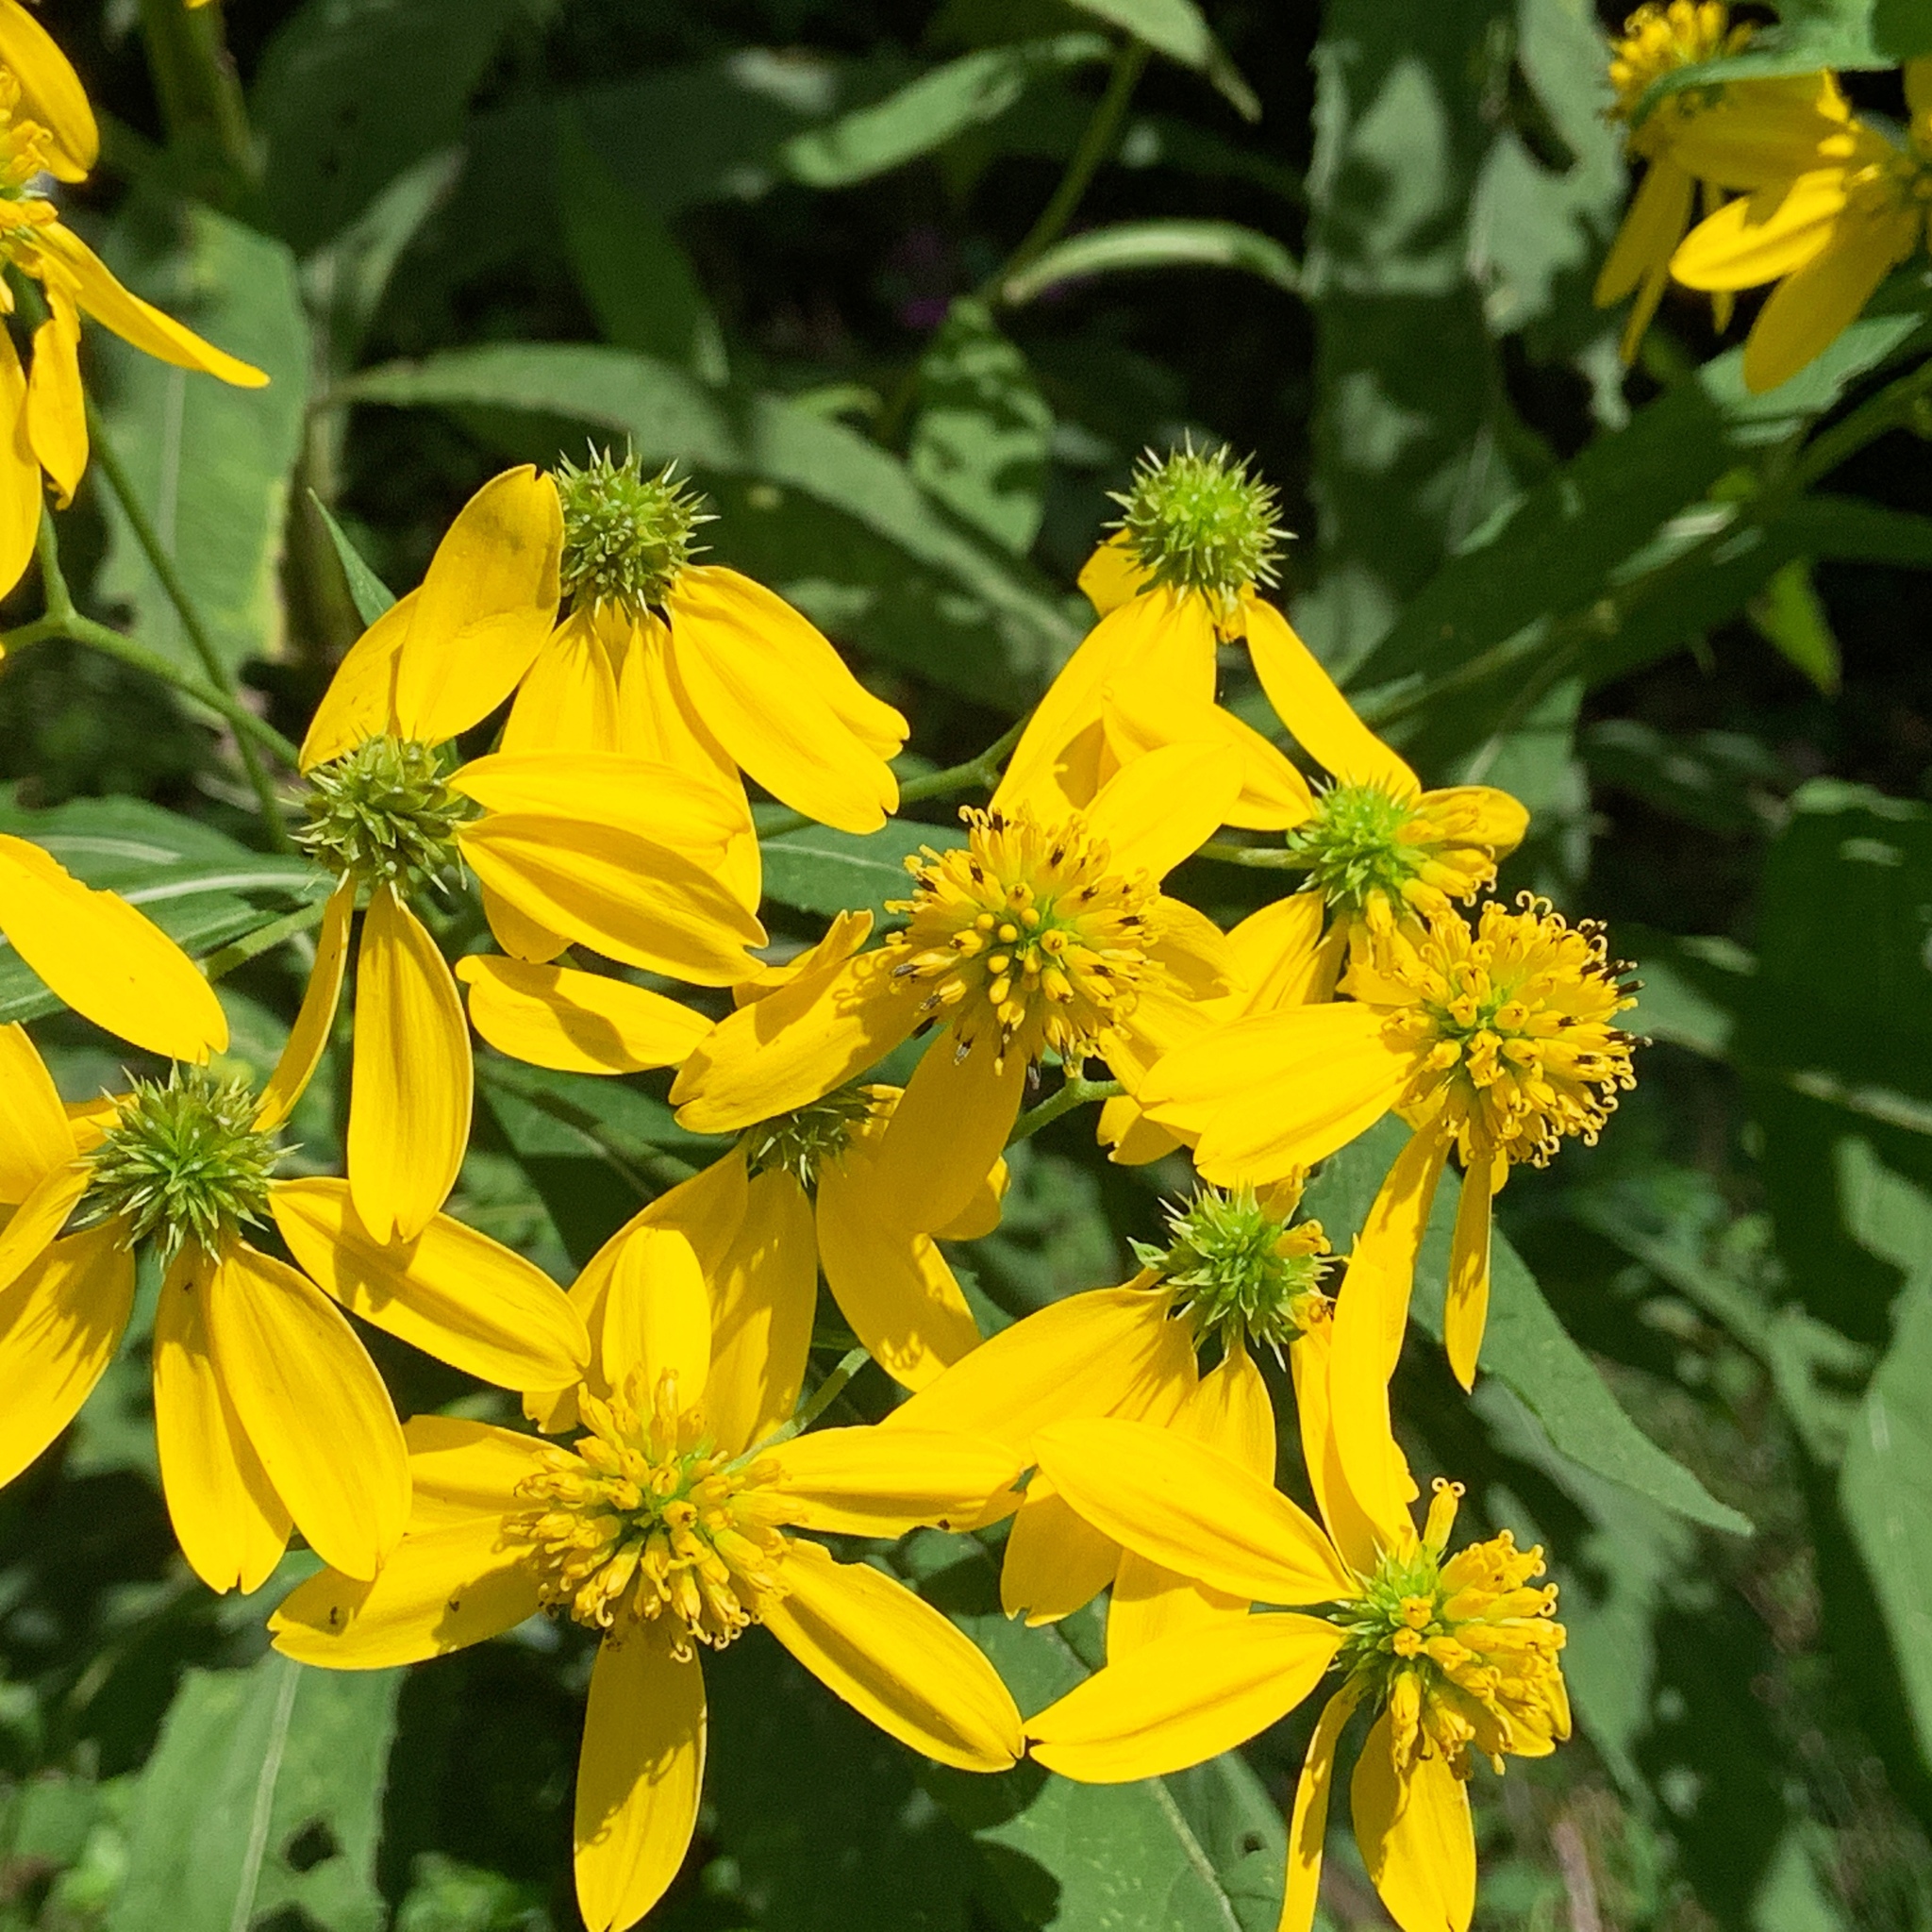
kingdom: Plantae
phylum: Tracheophyta
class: Magnoliopsida
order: Asterales
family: Asteraceae
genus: Verbesina
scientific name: Verbesina alternifolia
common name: Wingstem
